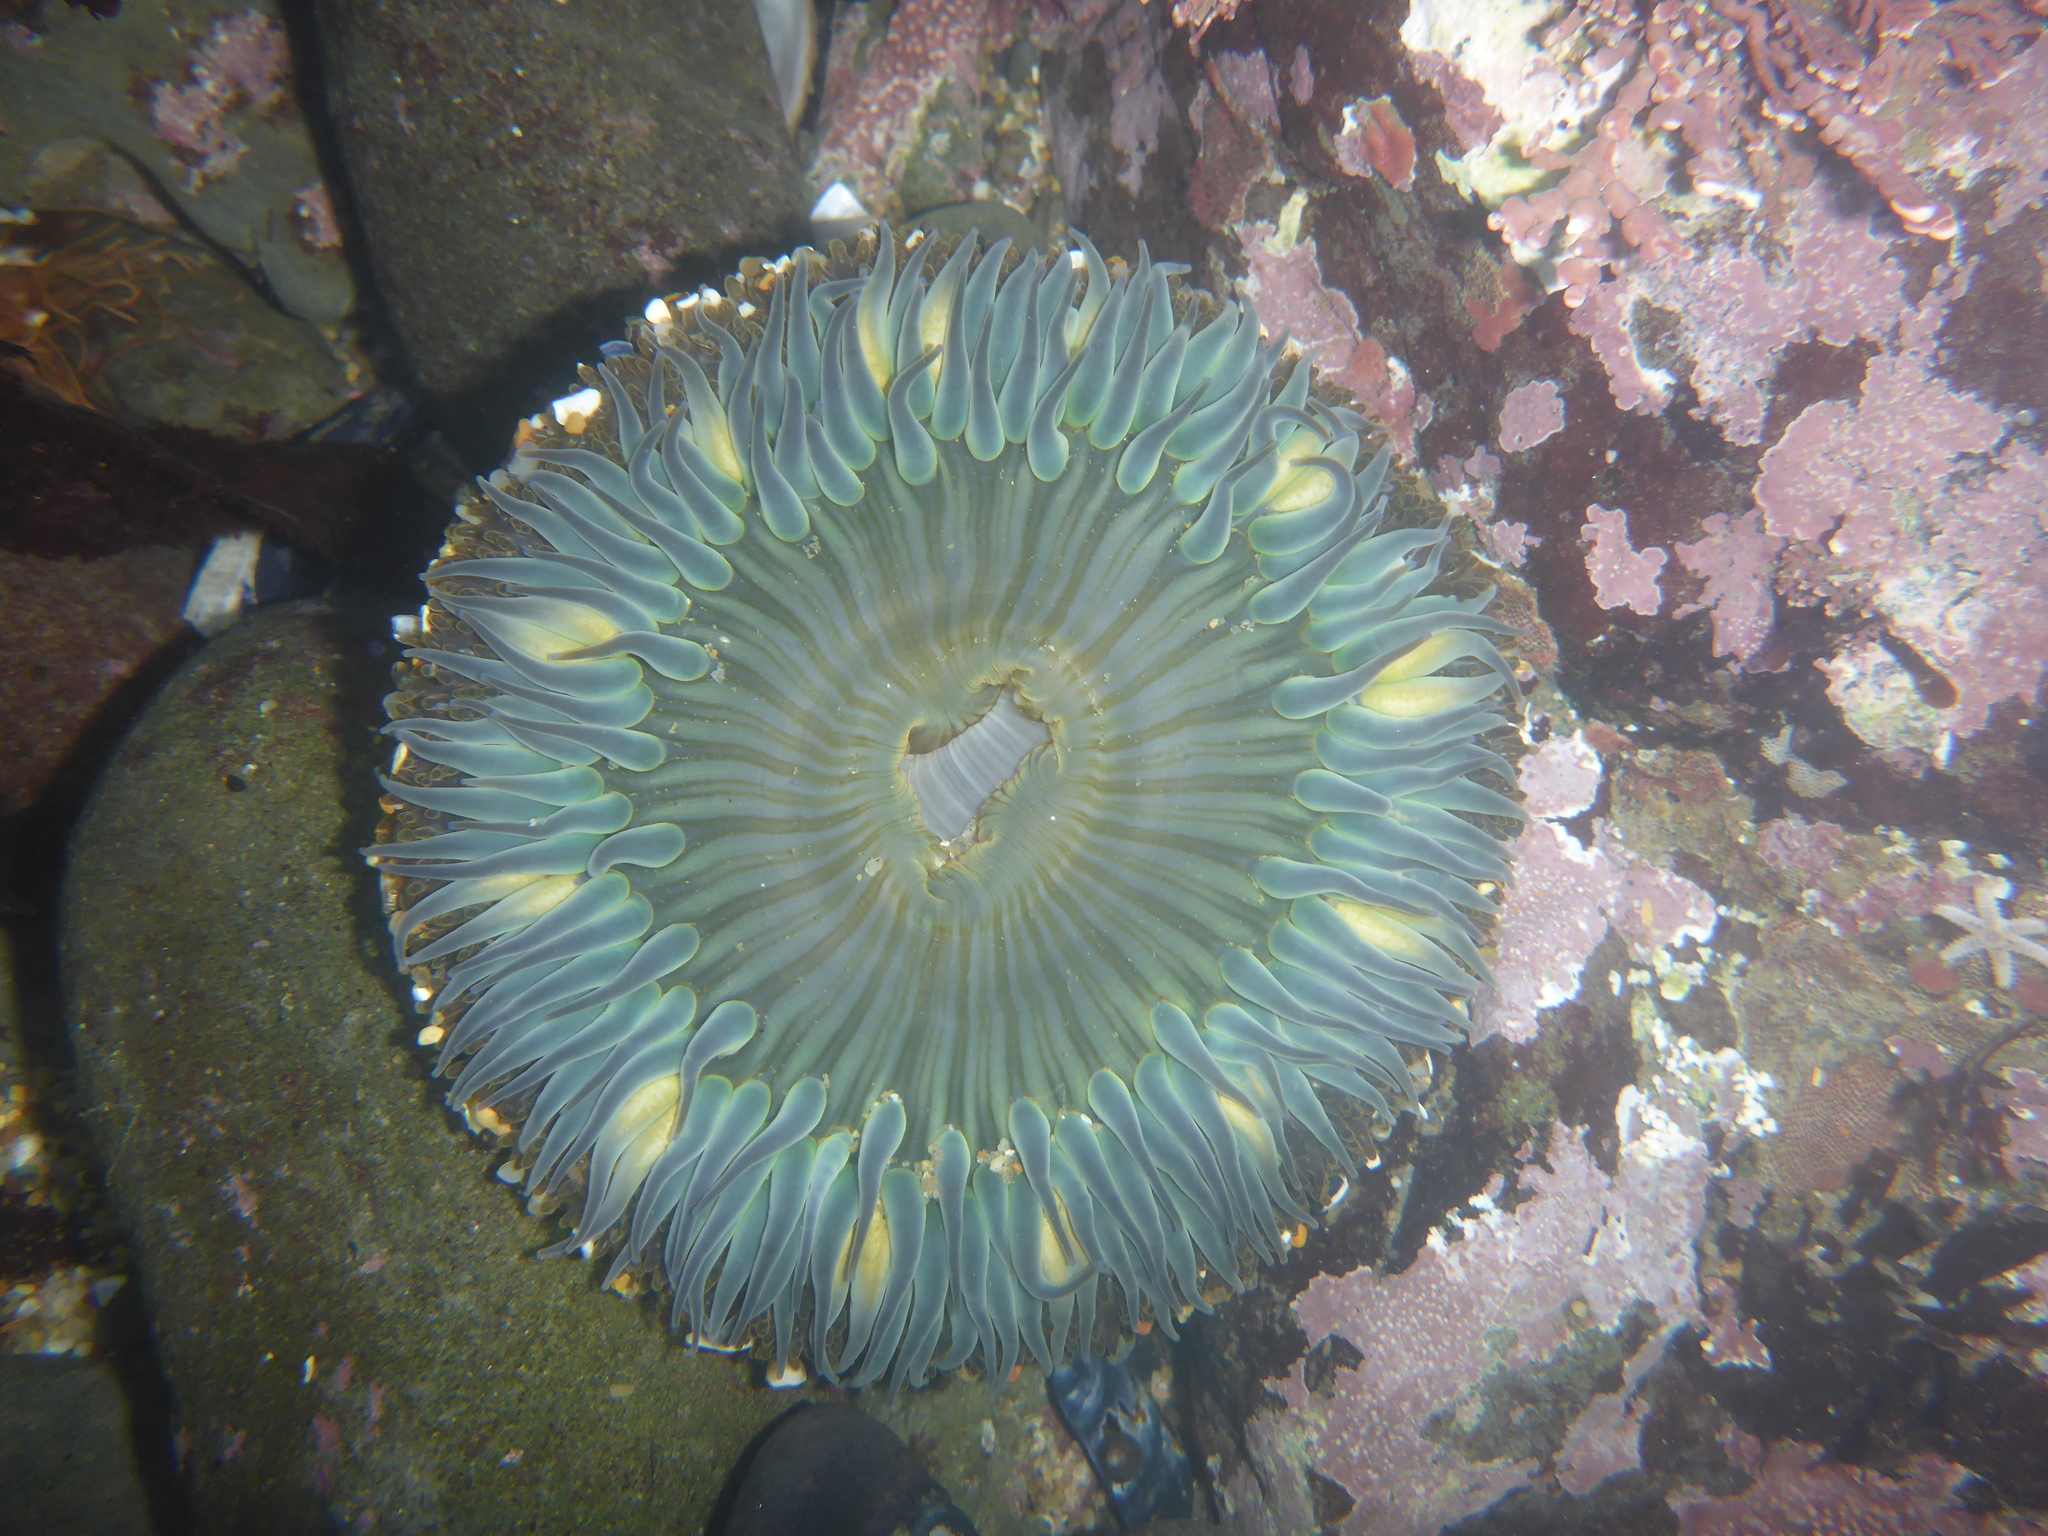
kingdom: Animalia
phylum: Cnidaria
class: Anthozoa
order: Actiniaria
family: Actiniidae
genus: Anthopleura
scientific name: Anthopleura sola
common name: Sun anemone
